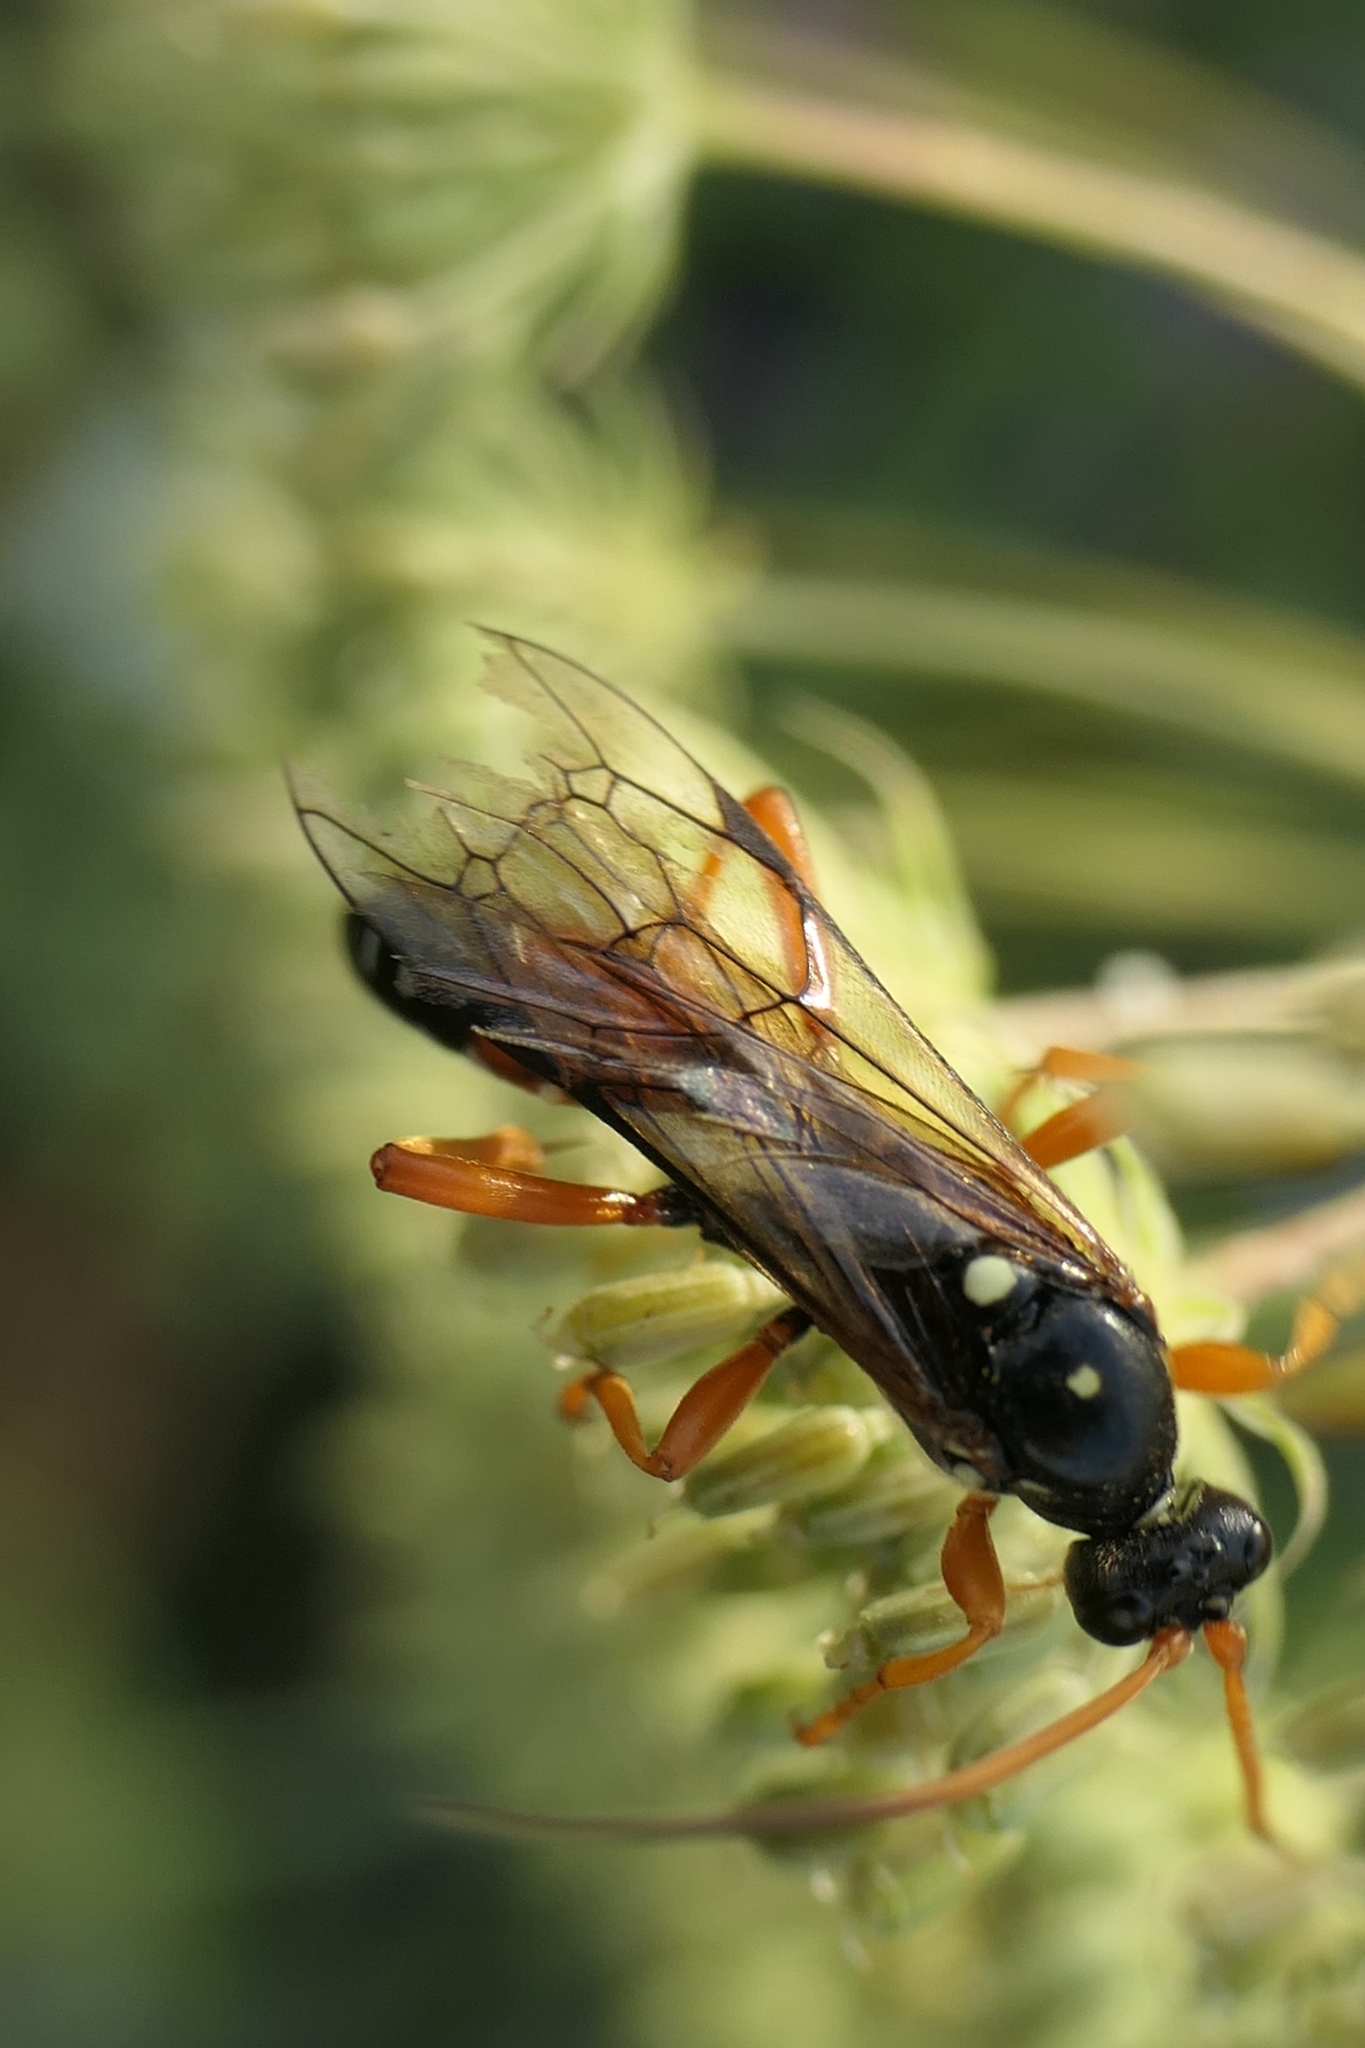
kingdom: Animalia
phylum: Arthropoda
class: Insecta
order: Hymenoptera
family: Ichneumonidae
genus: Eutanyacra
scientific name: Eutanyacra licitatoria
